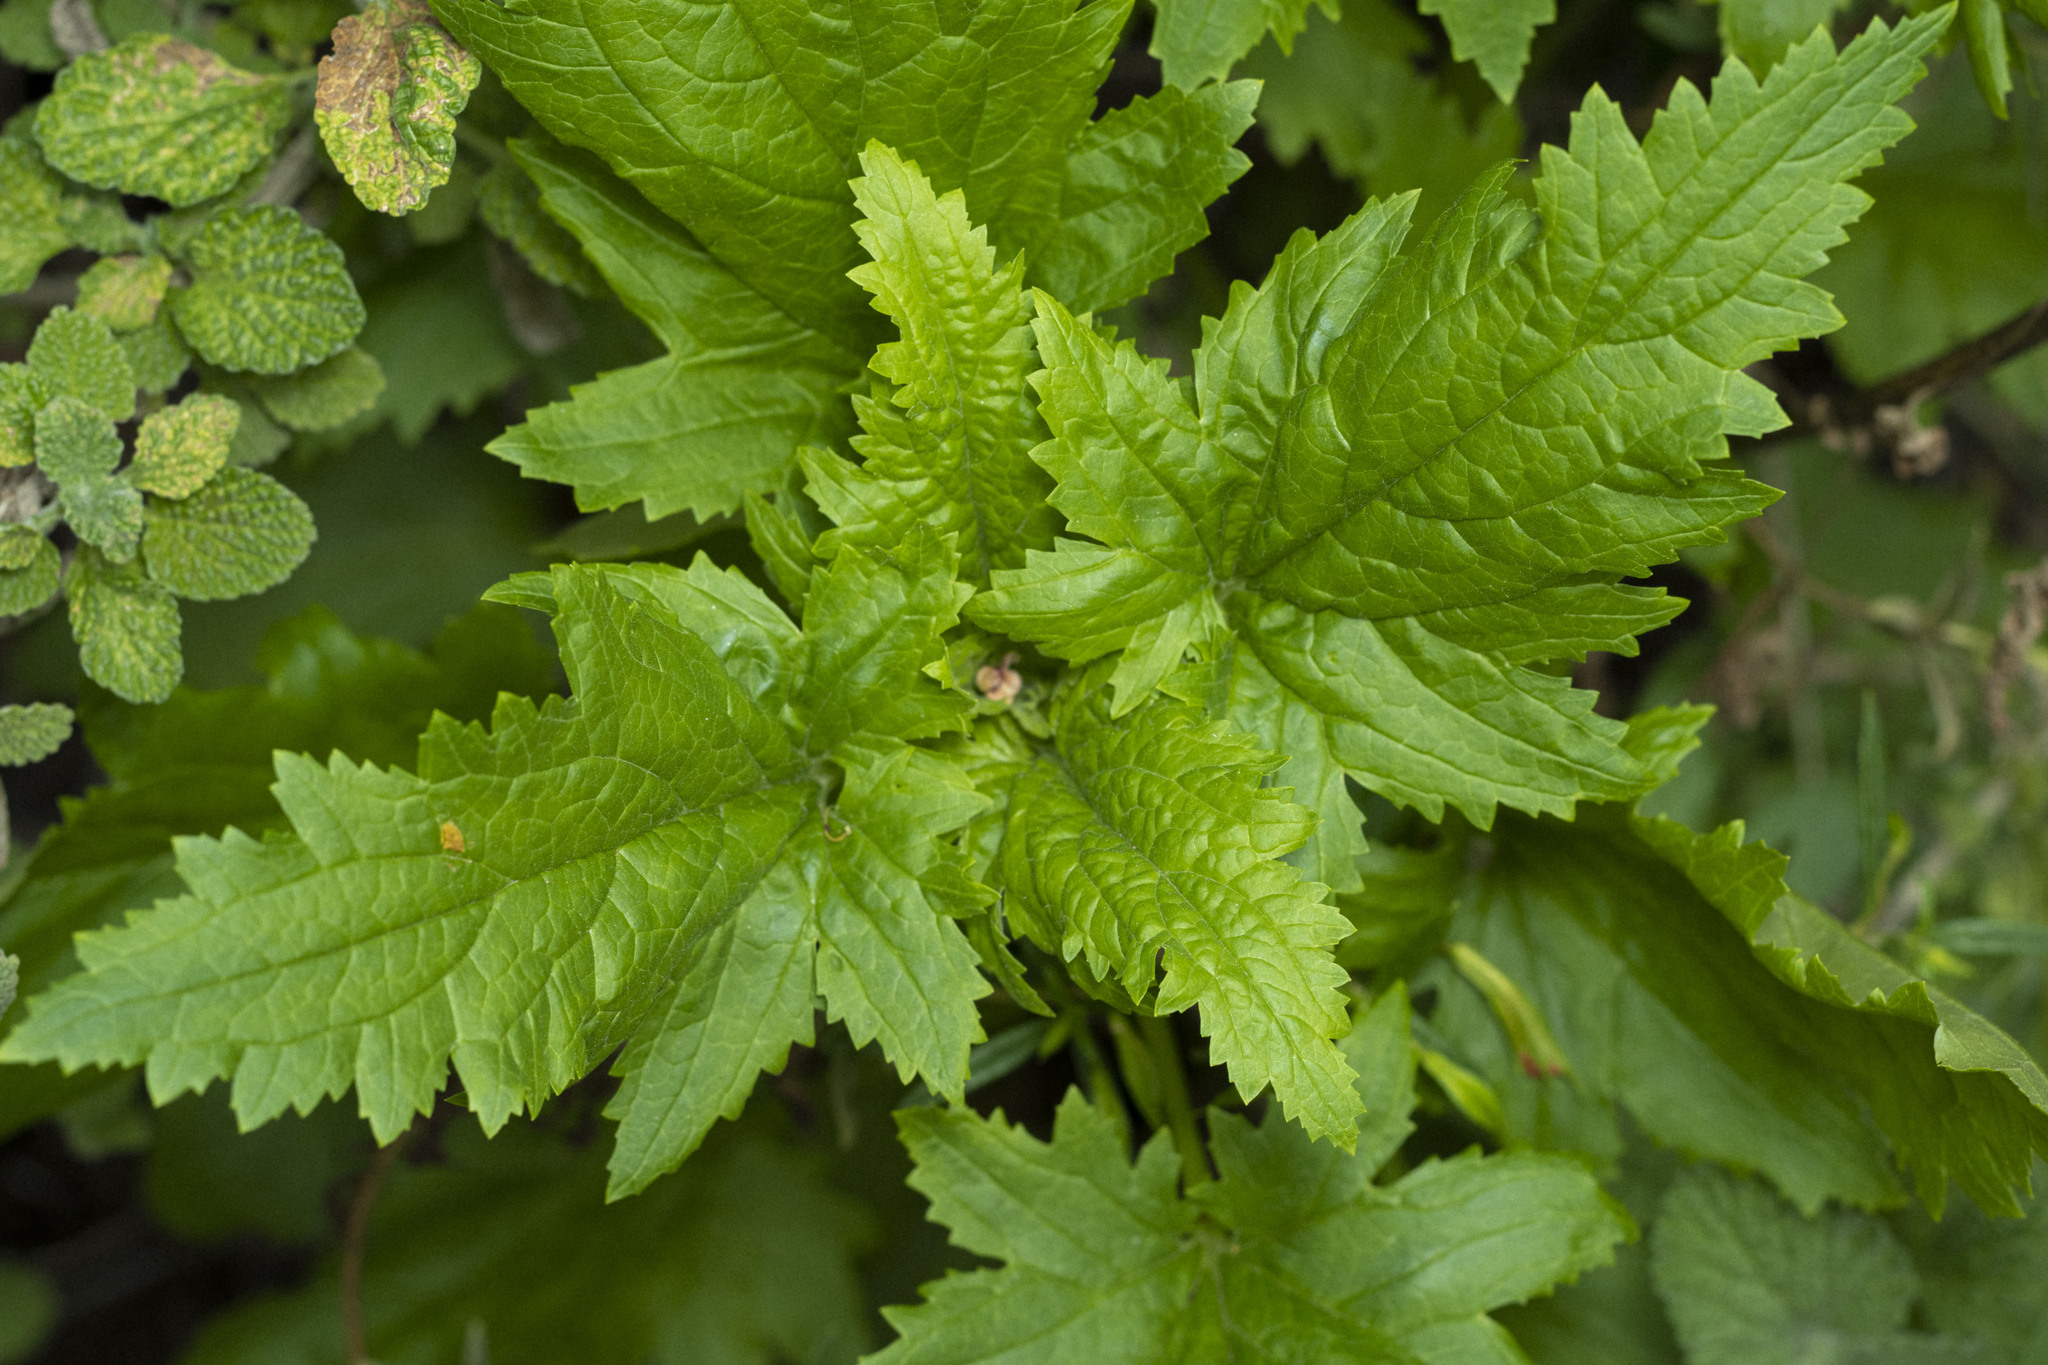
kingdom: Plantae
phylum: Tracheophyta
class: Magnoliopsida
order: Lamiales
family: Scrophulariaceae
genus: Scrophularia
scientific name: Scrophularia californica
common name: California figwort
